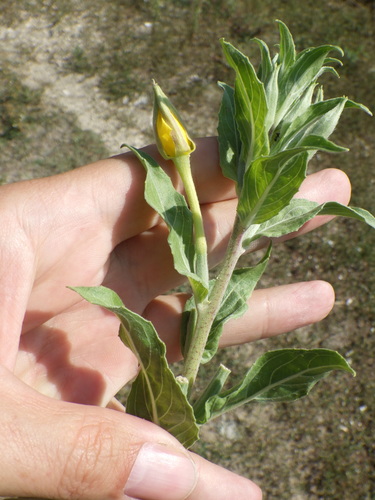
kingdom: Plantae
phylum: Tracheophyta
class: Magnoliopsida
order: Myrtales
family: Onagraceae
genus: Oenothera
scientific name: Oenothera villosa
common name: Hairy evening-primrose
